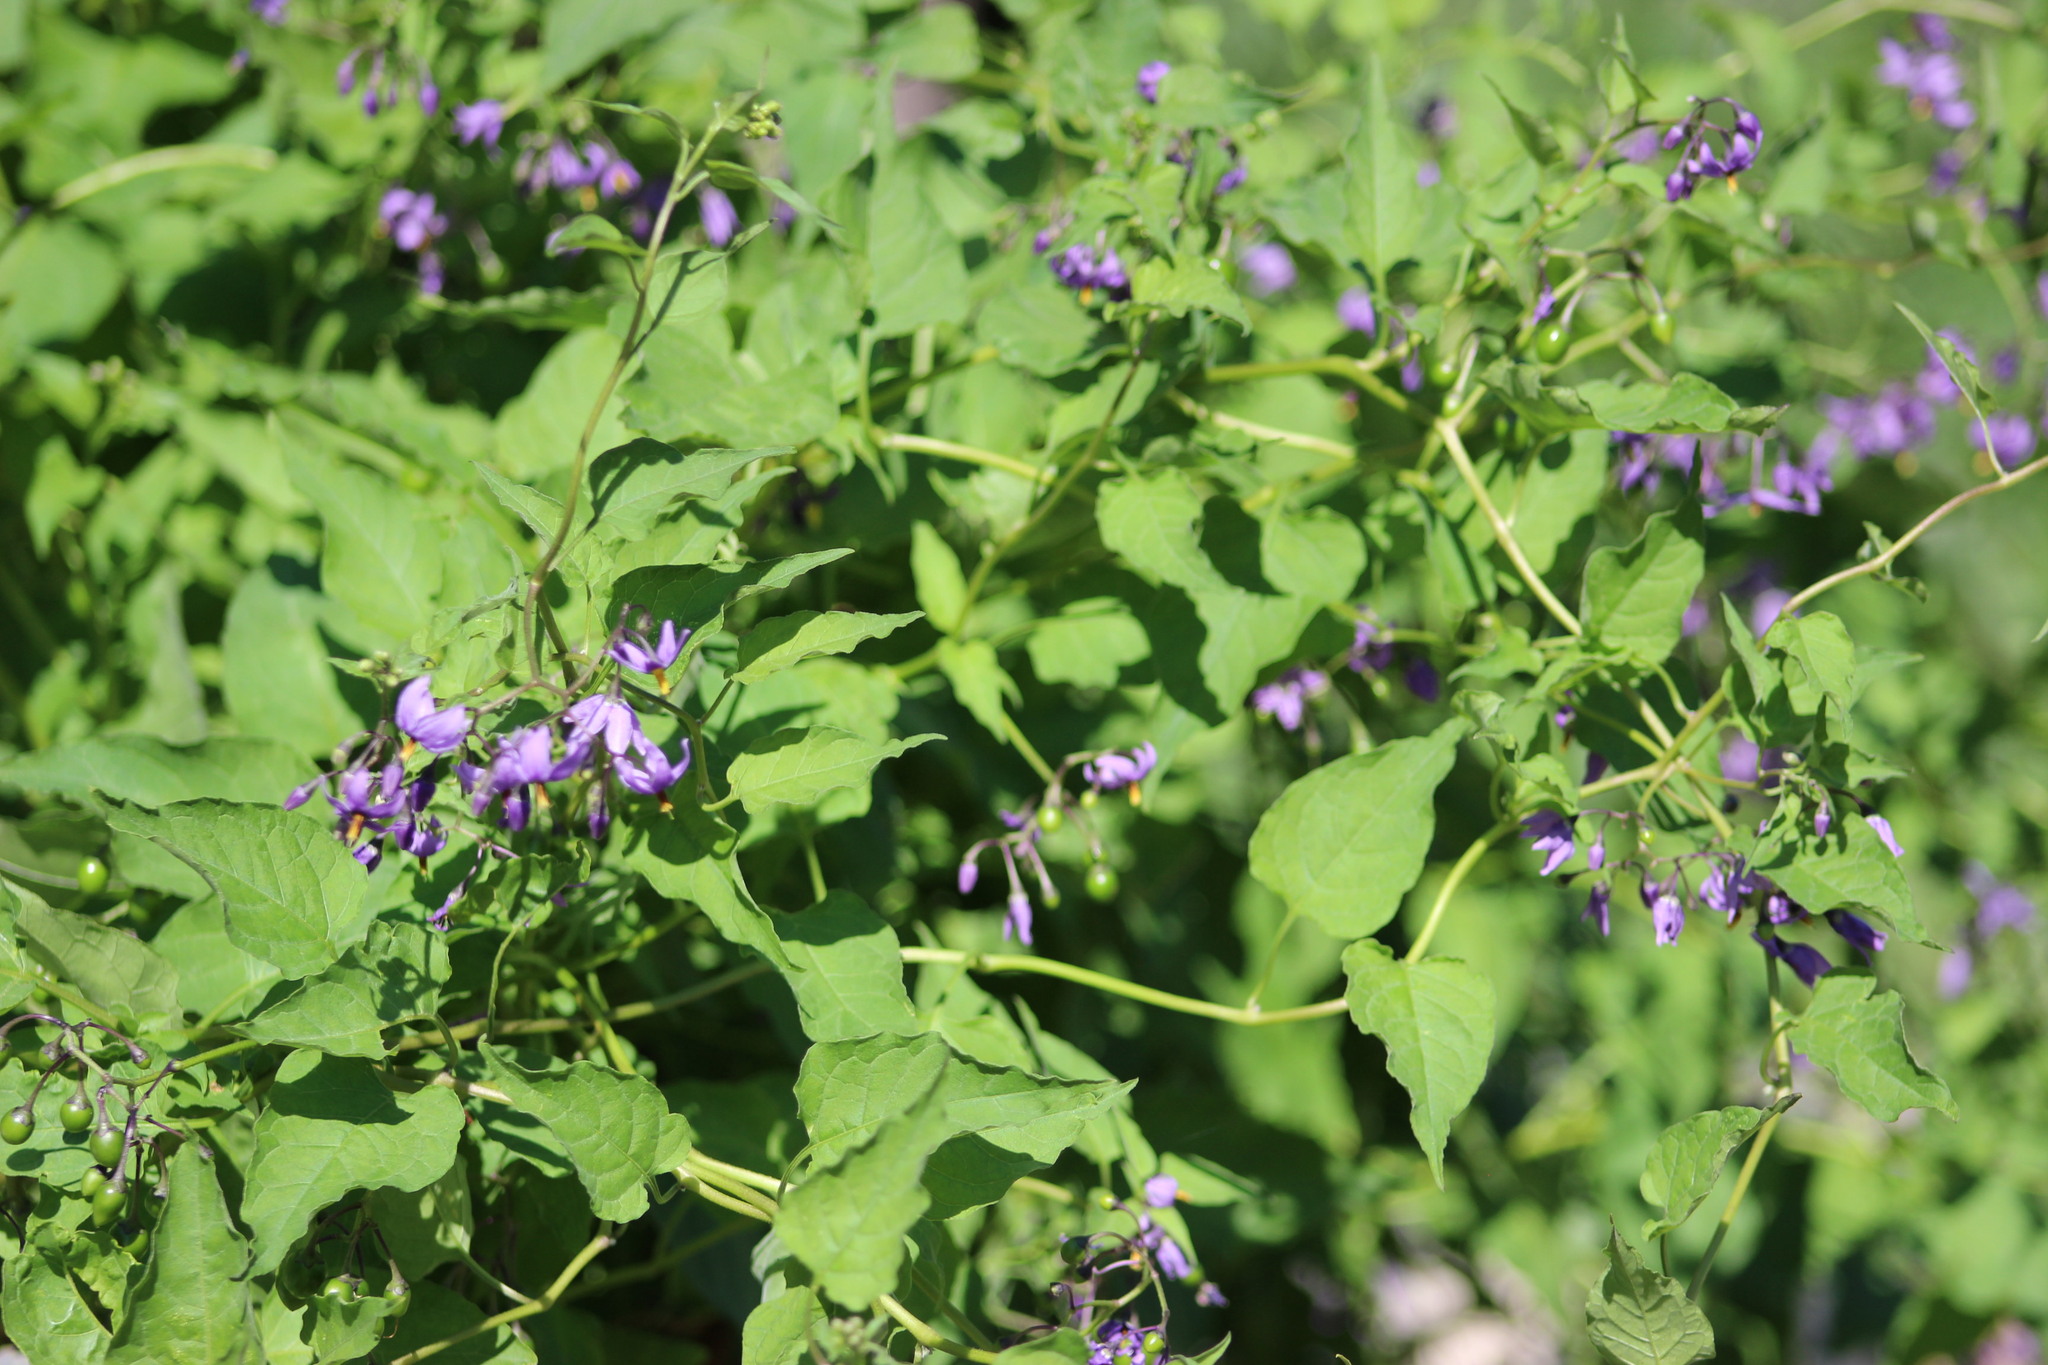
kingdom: Plantae
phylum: Tracheophyta
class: Magnoliopsida
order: Solanales
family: Solanaceae
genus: Solanum
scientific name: Solanum dulcamara
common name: Climbing nightshade
